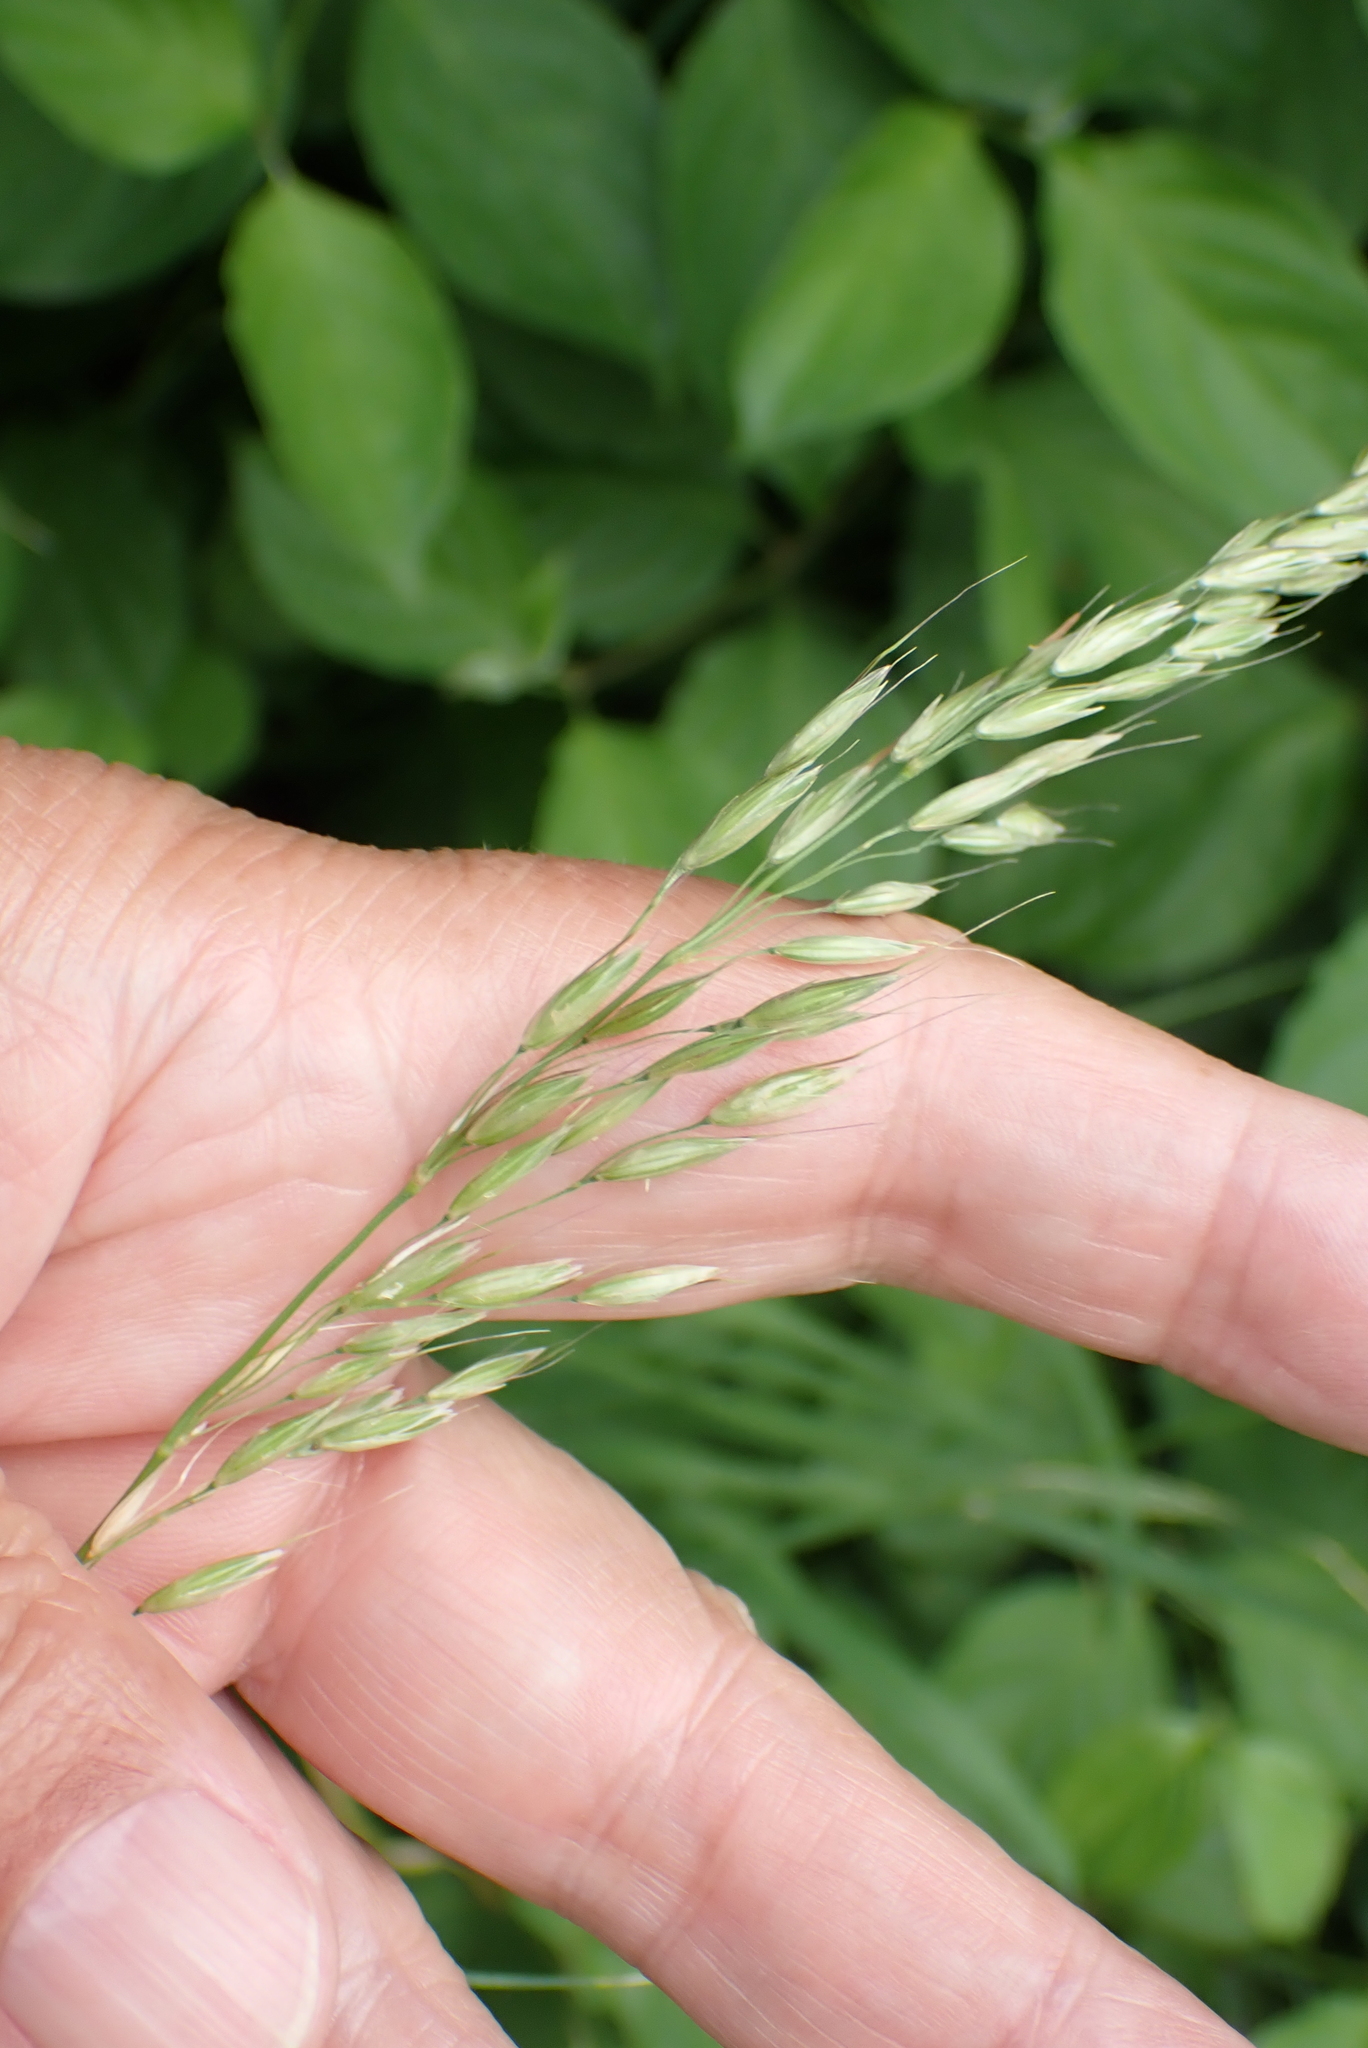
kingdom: Plantae
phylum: Tracheophyta
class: Liliopsida
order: Poales
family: Poaceae
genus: Arrhenatherum
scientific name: Arrhenatherum elatius
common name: Tall oatgrass
